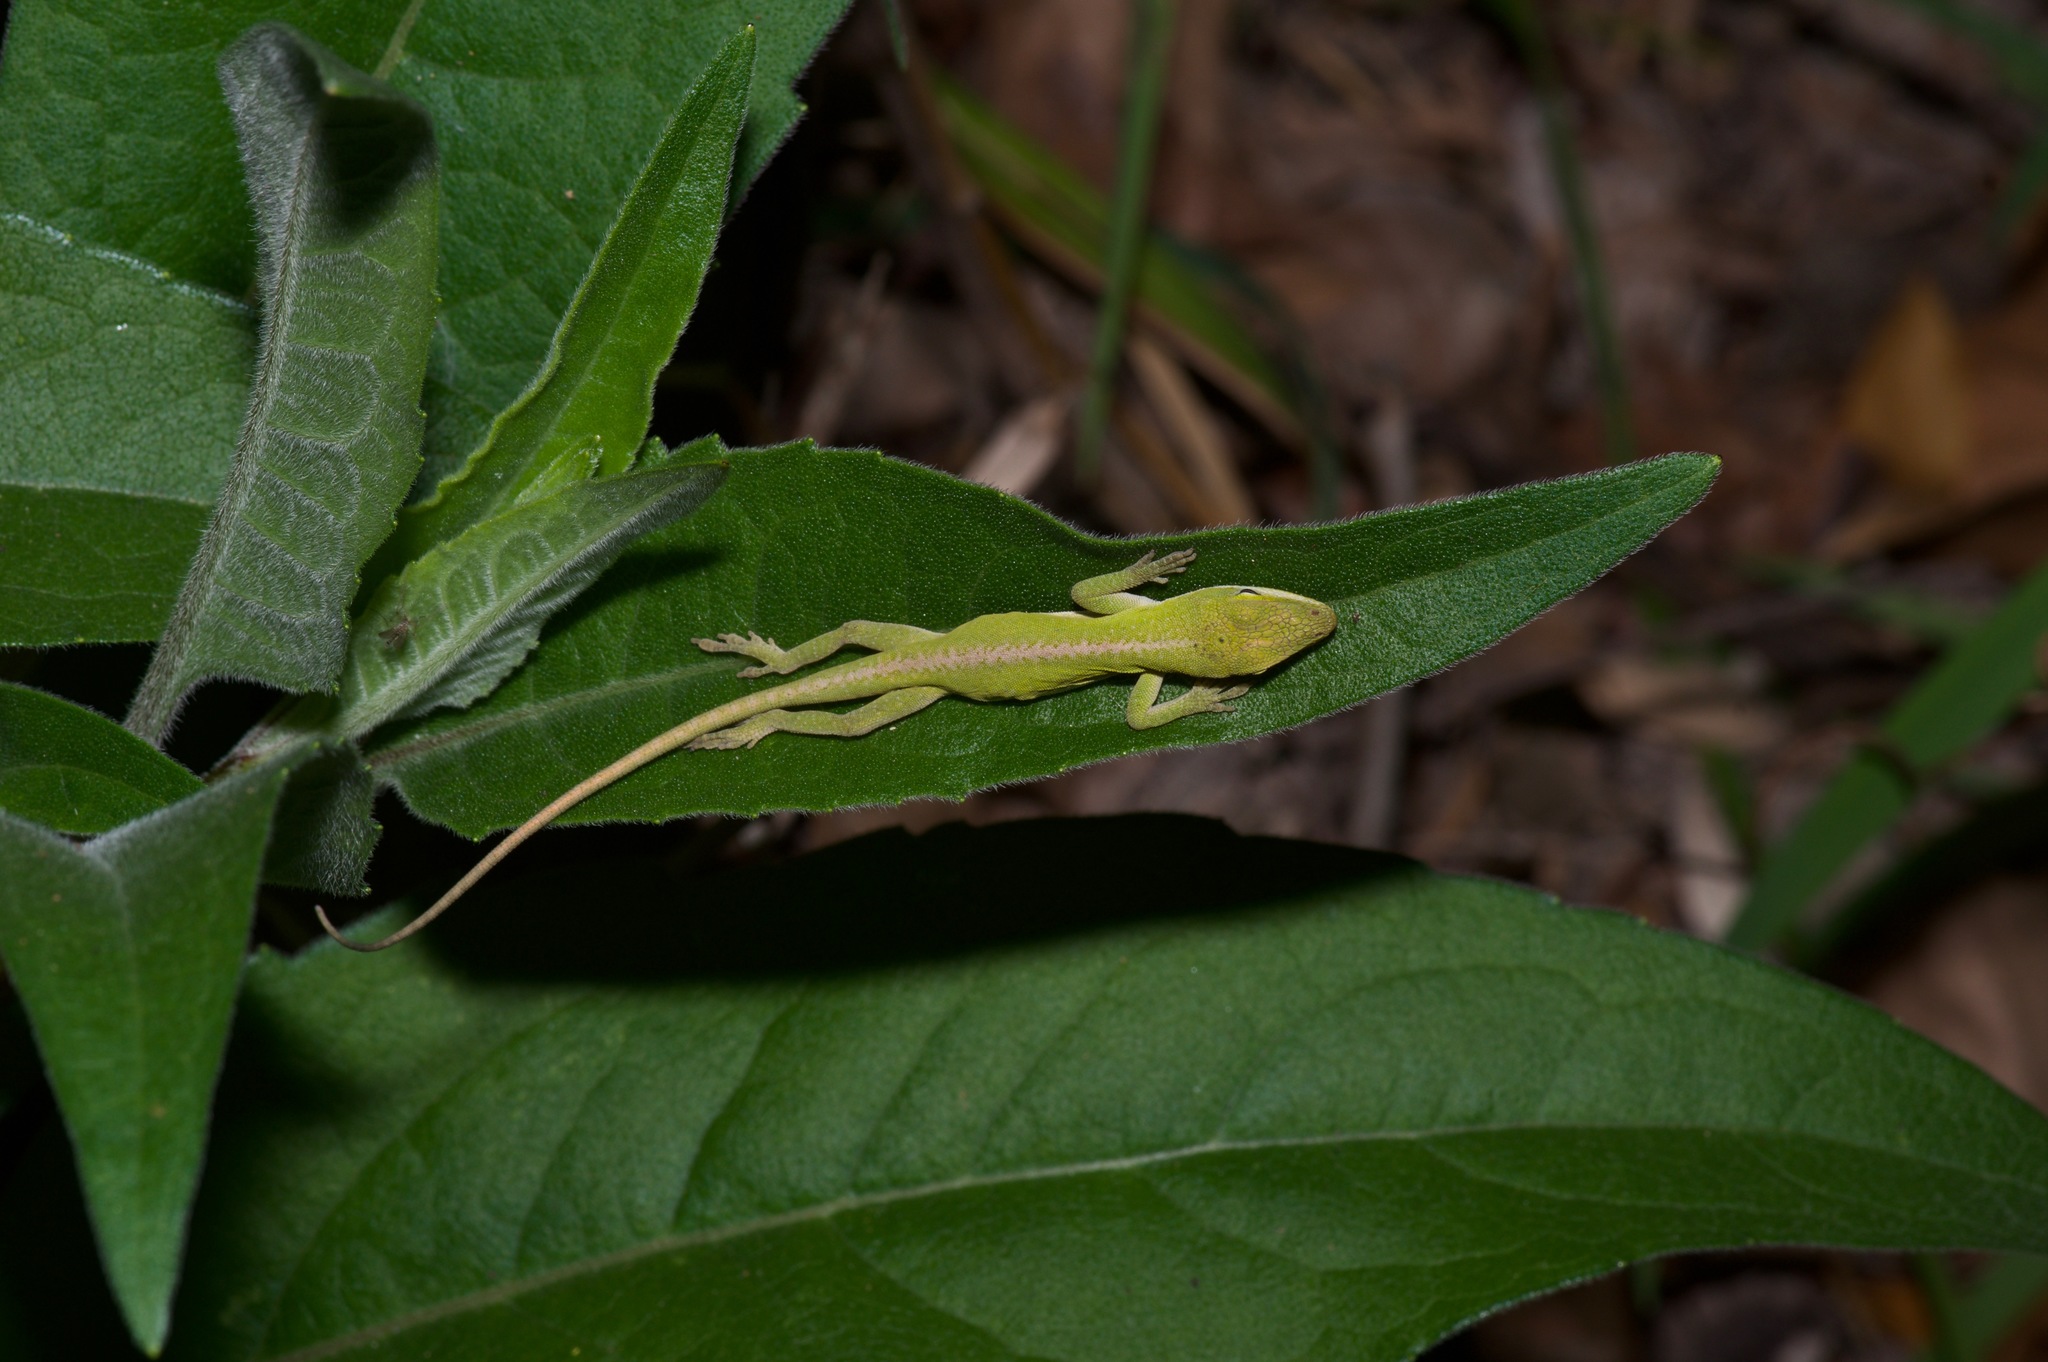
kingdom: Animalia
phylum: Chordata
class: Squamata
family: Dactyloidae
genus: Anolis
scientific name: Anolis carolinensis
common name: Green anole
